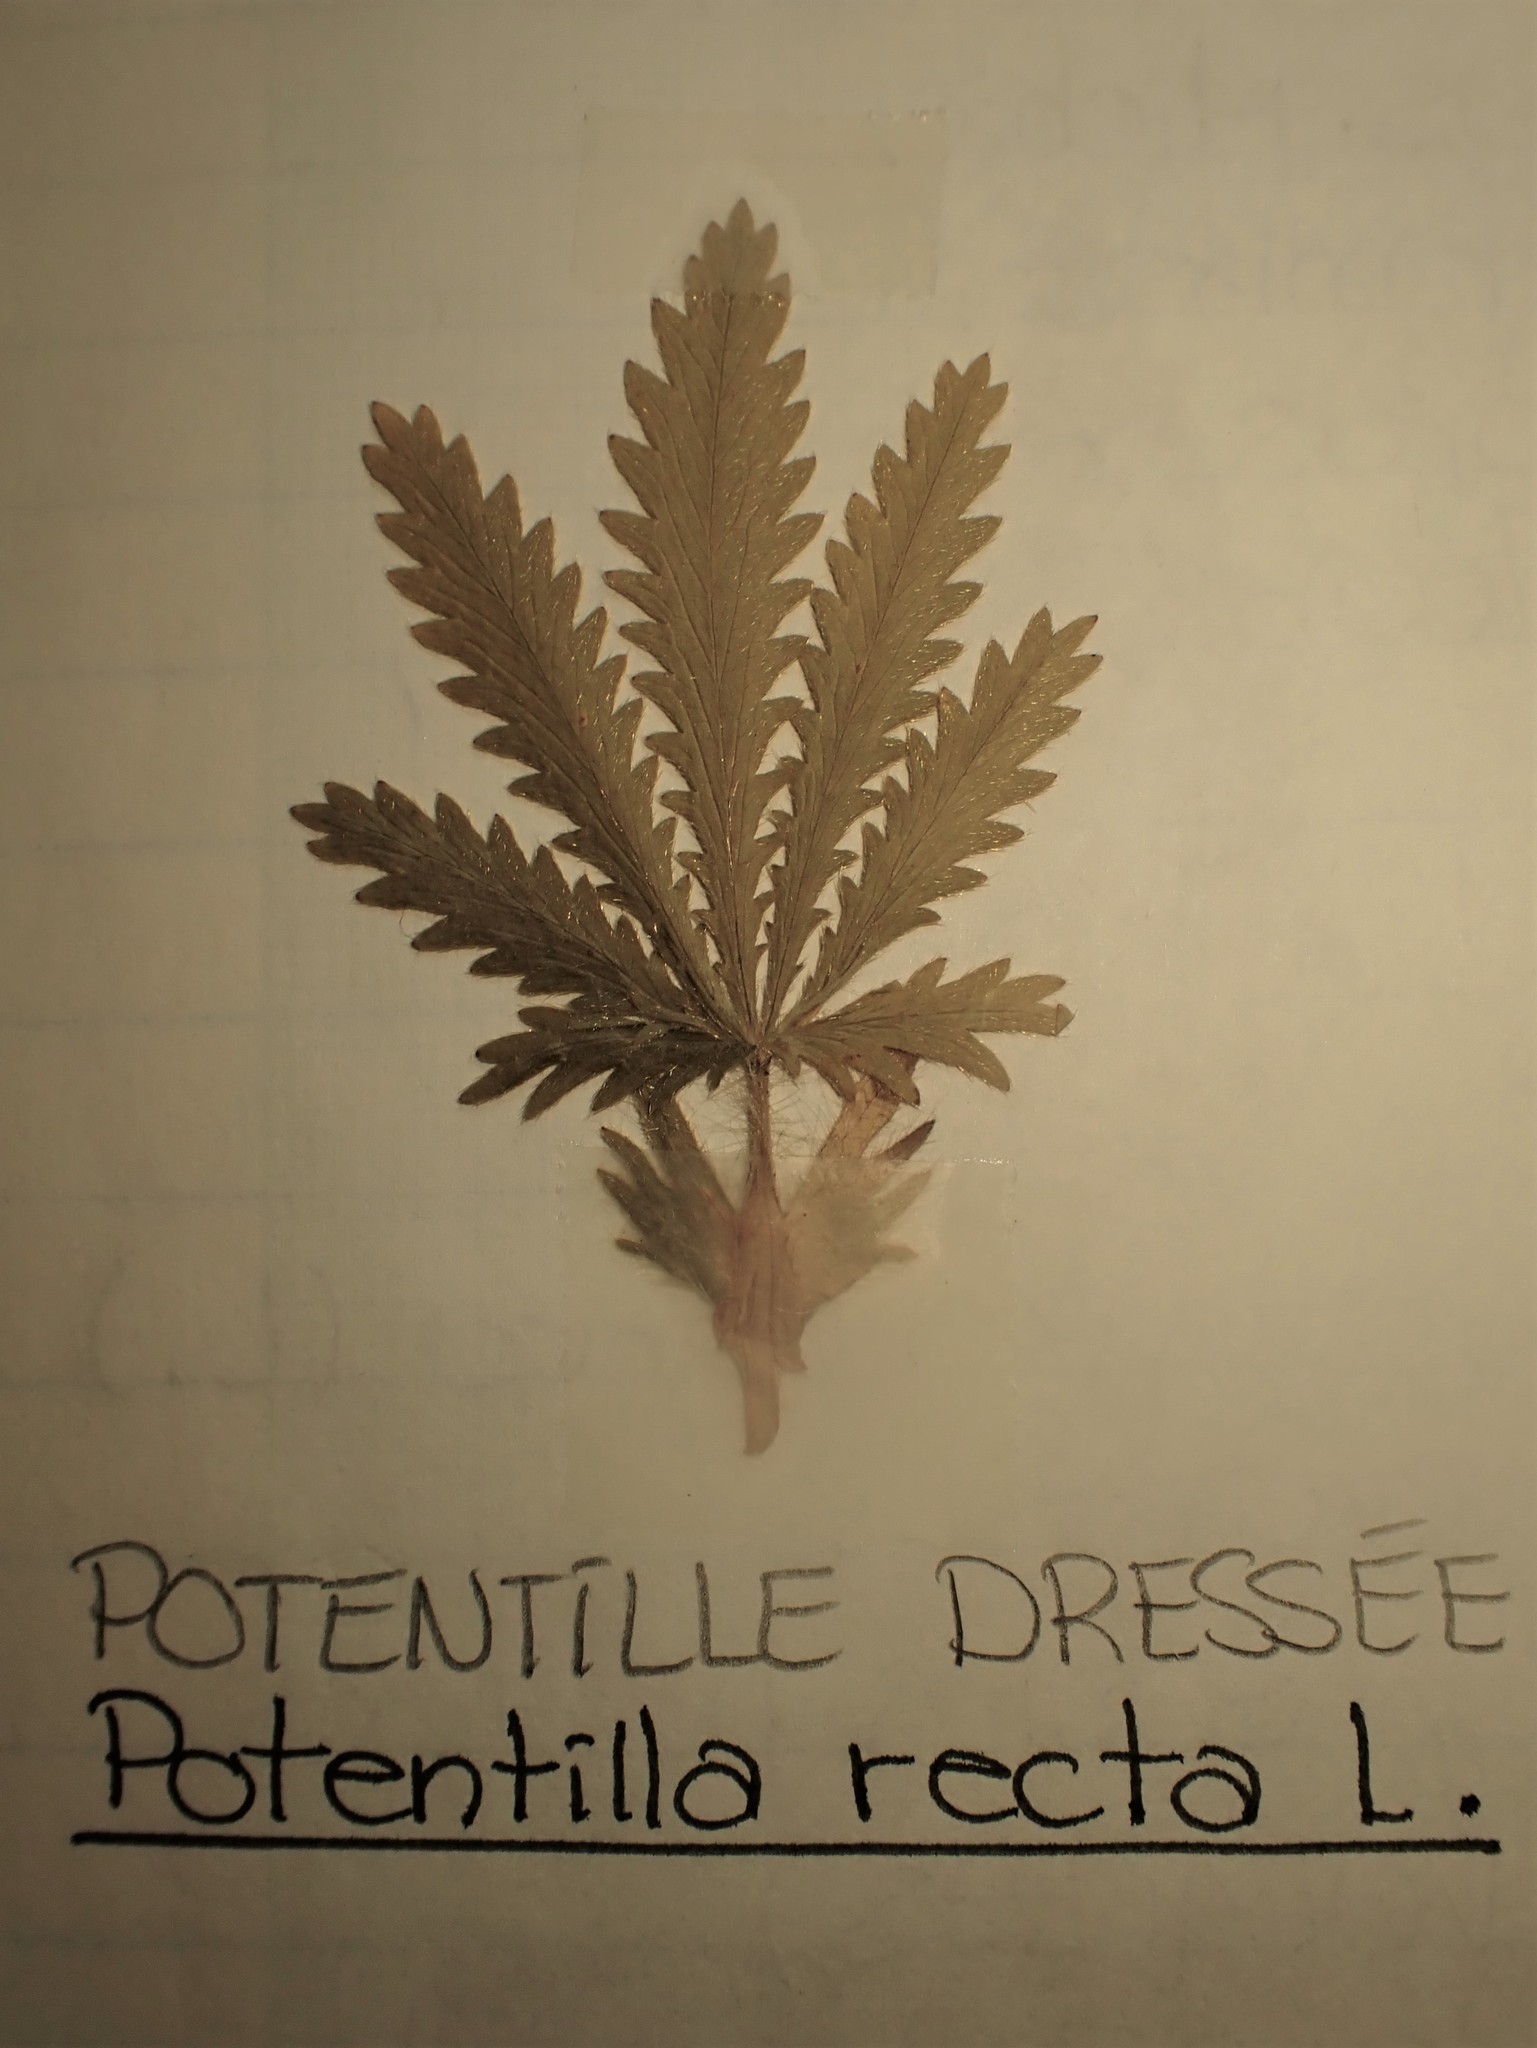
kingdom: Plantae
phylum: Tracheophyta
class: Magnoliopsida
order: Rosales
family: Rosaceae
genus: Potentilla
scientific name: Potentilla recta
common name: Sulphur cinquefoil
